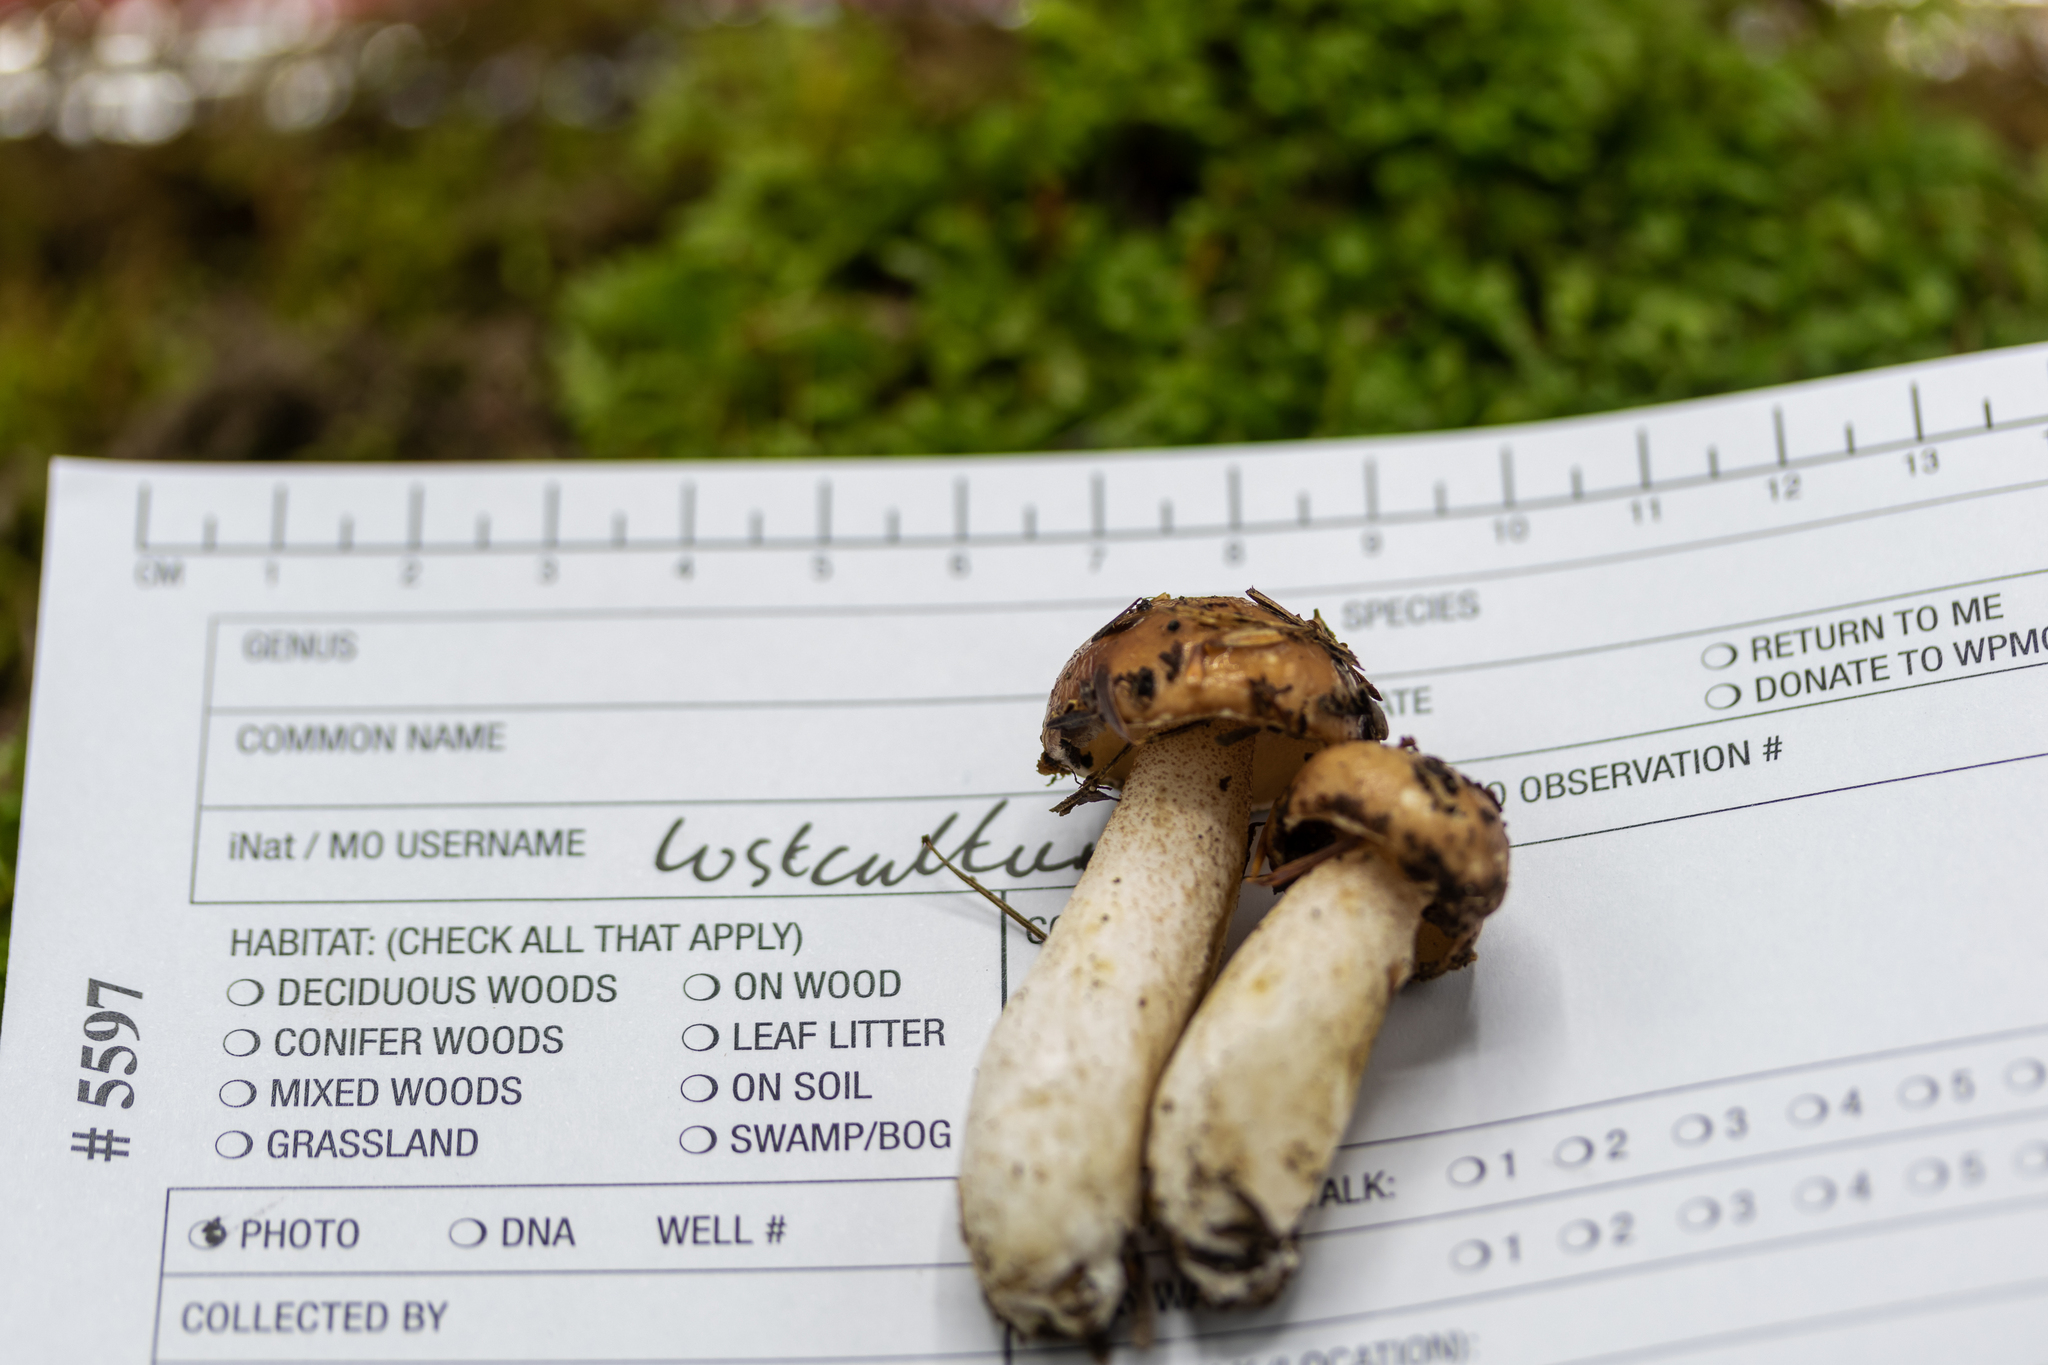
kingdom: Fungi
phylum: Basidiomycota
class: Agaricomycetes
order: Boletales
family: Suillaceae
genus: Fuscoboletinus
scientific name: Fuscoboletinus weaverae
